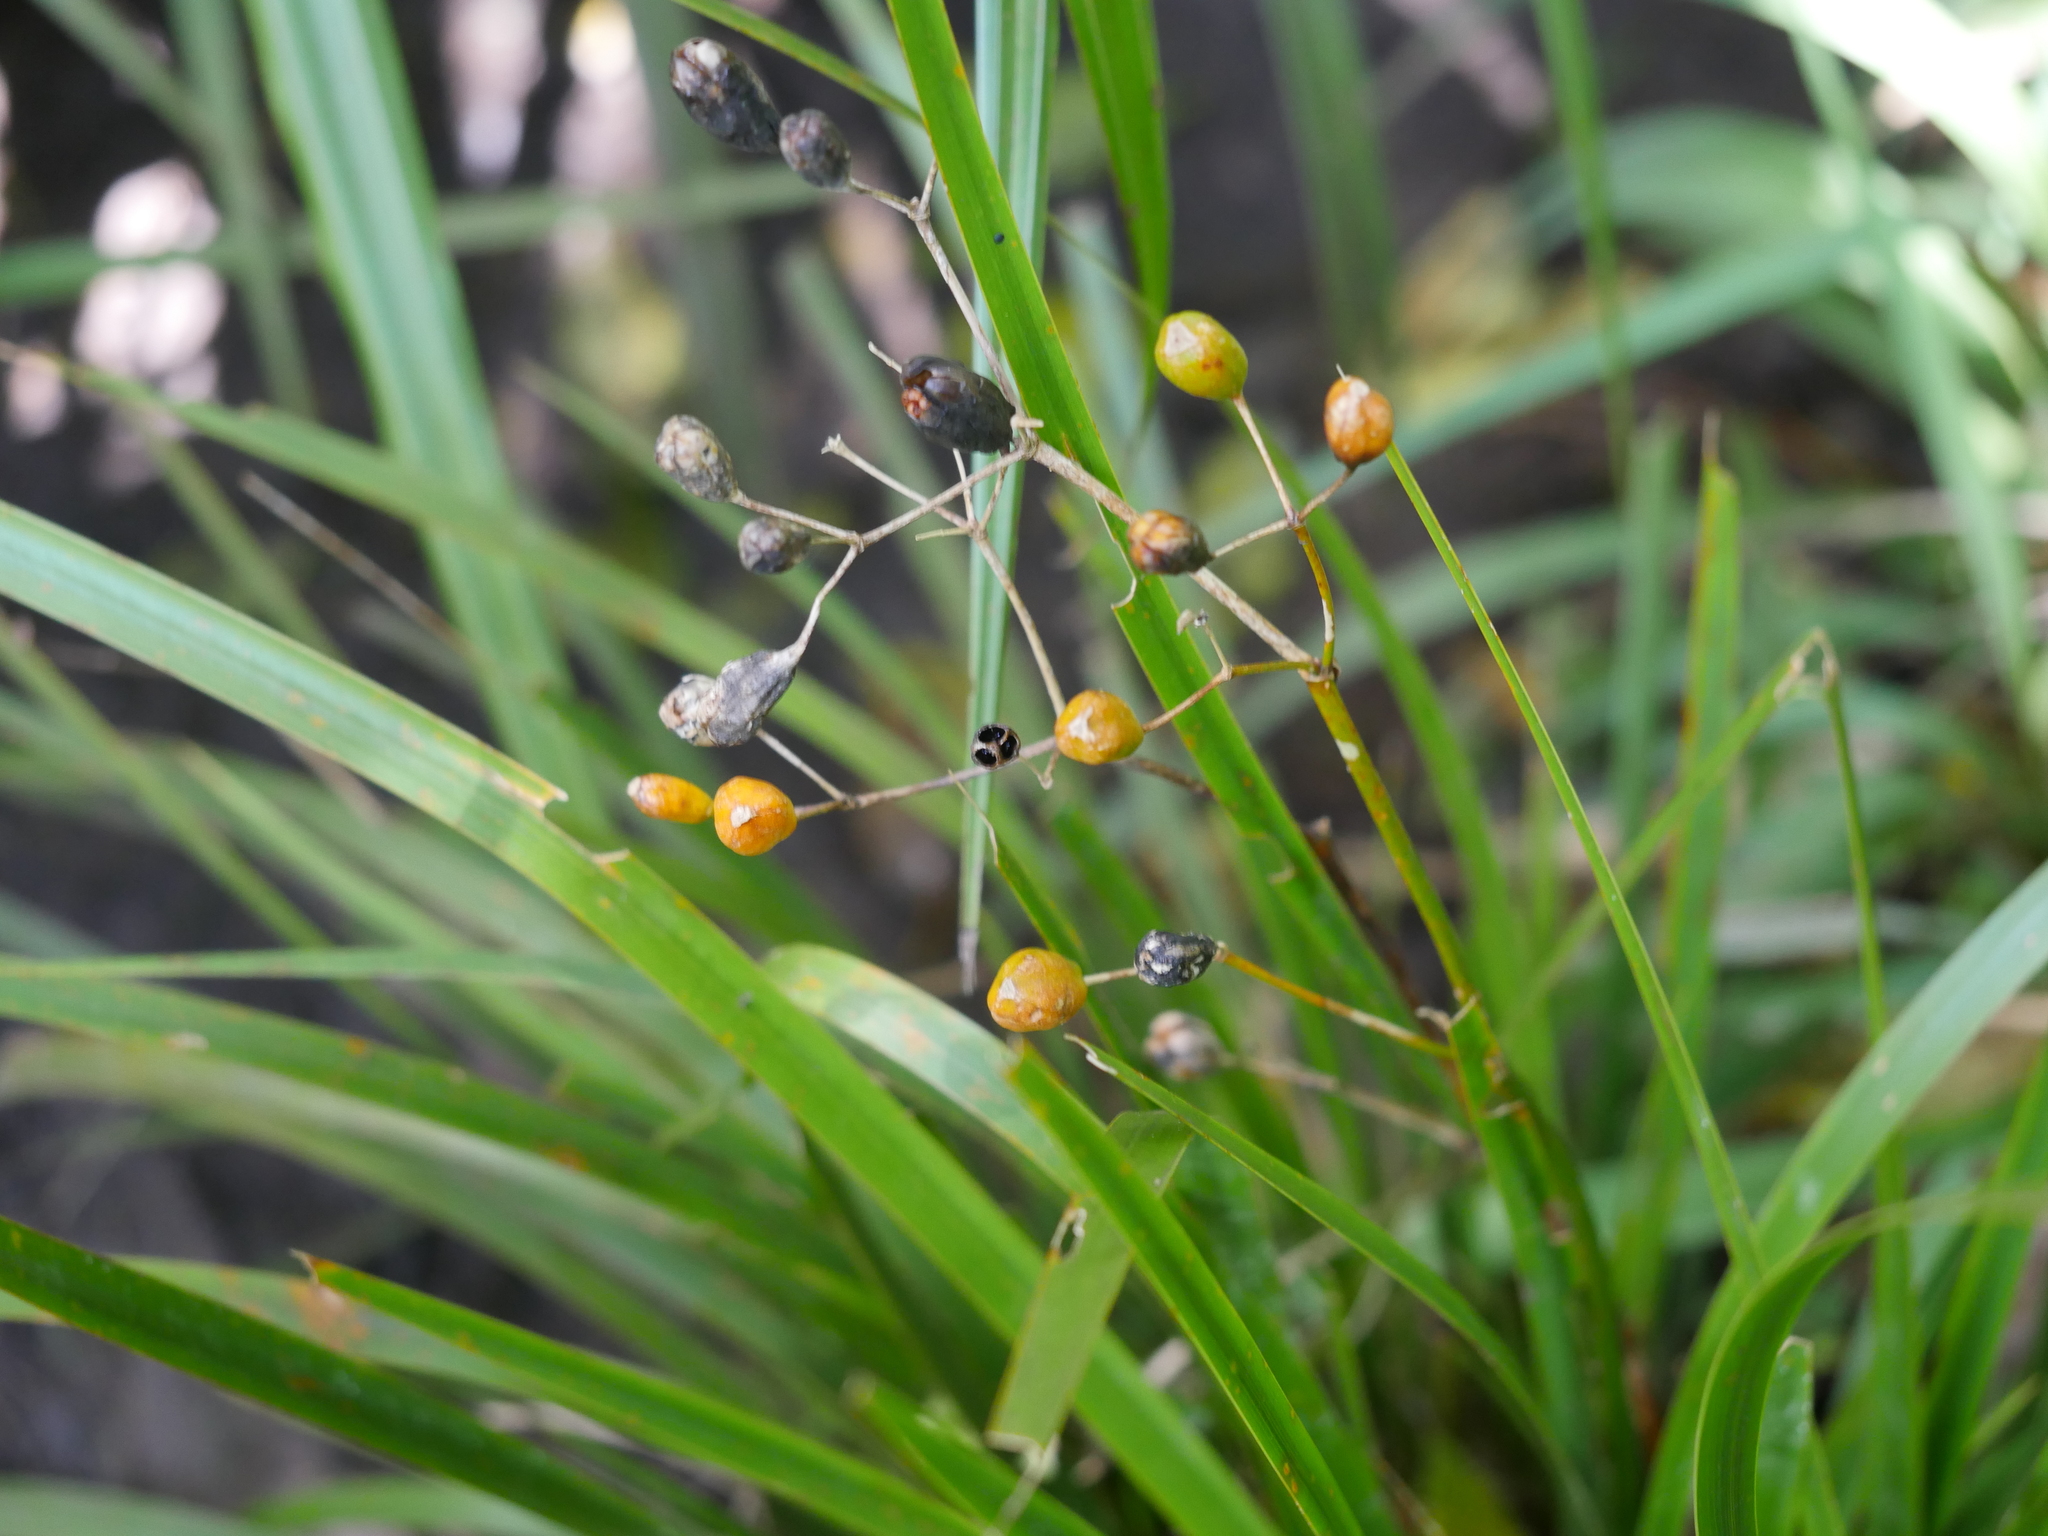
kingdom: Plantae
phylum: Tracheophyta
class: Liliopsida
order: Asparagales
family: Iridaceae
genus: Libertia
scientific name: Libertia ixioides
